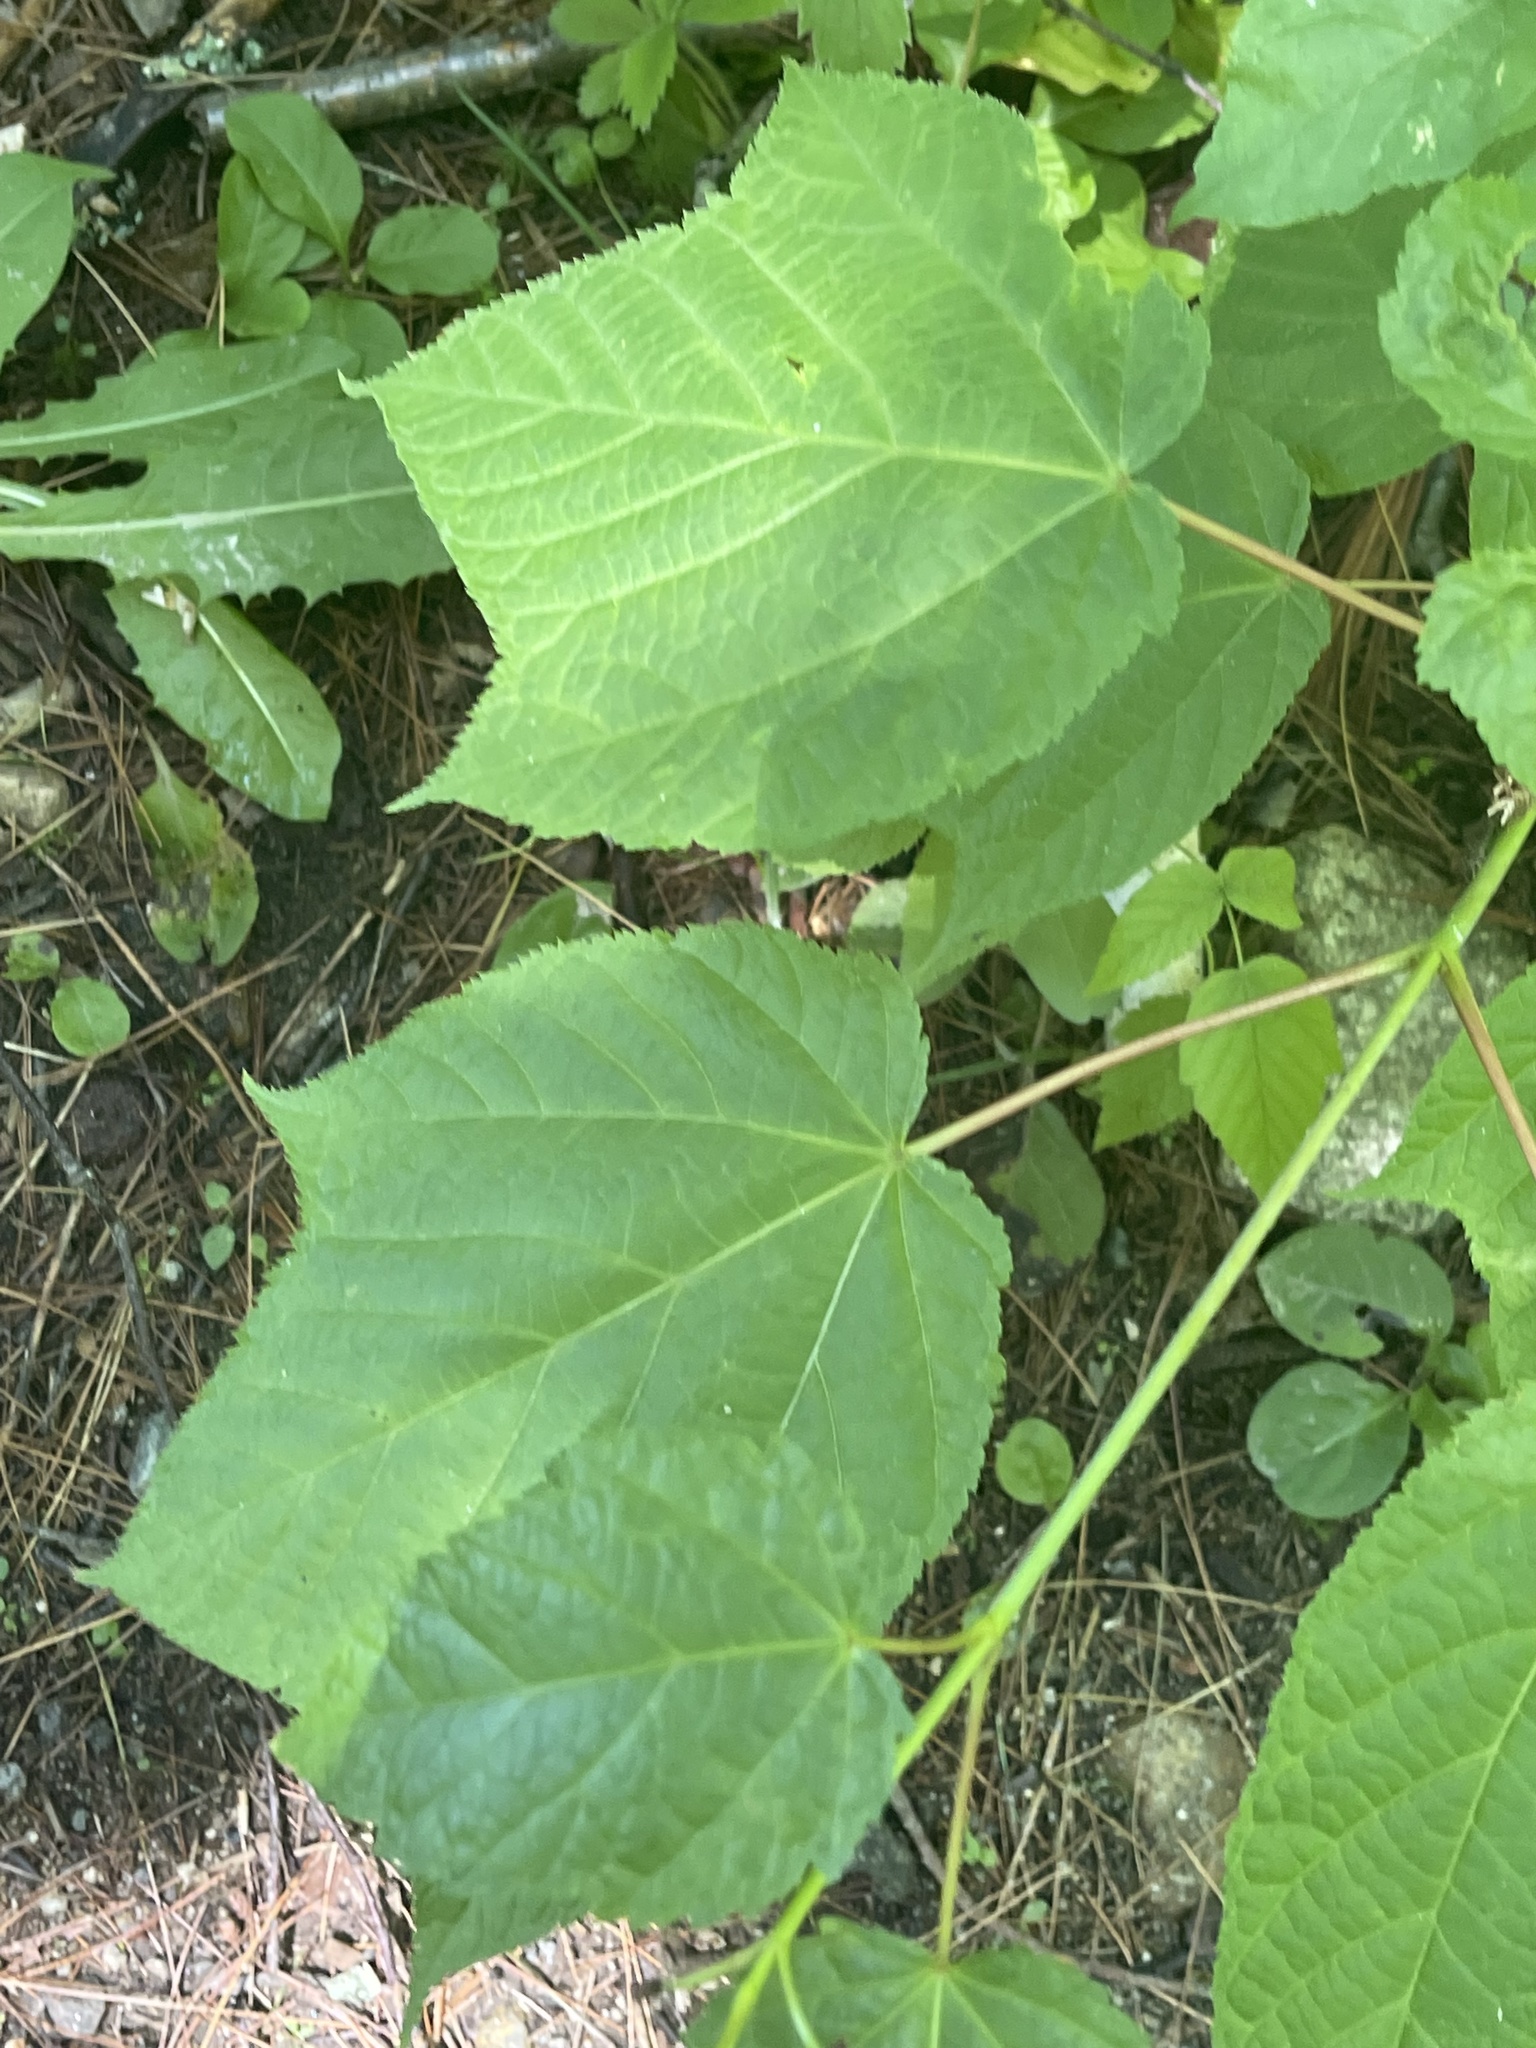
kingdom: Plantae
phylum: Tracheophyta
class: Magnoliopsida
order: Sapindales
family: Sapindaceae
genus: Acer
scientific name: Acer pensylvanicum
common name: Moosewood
